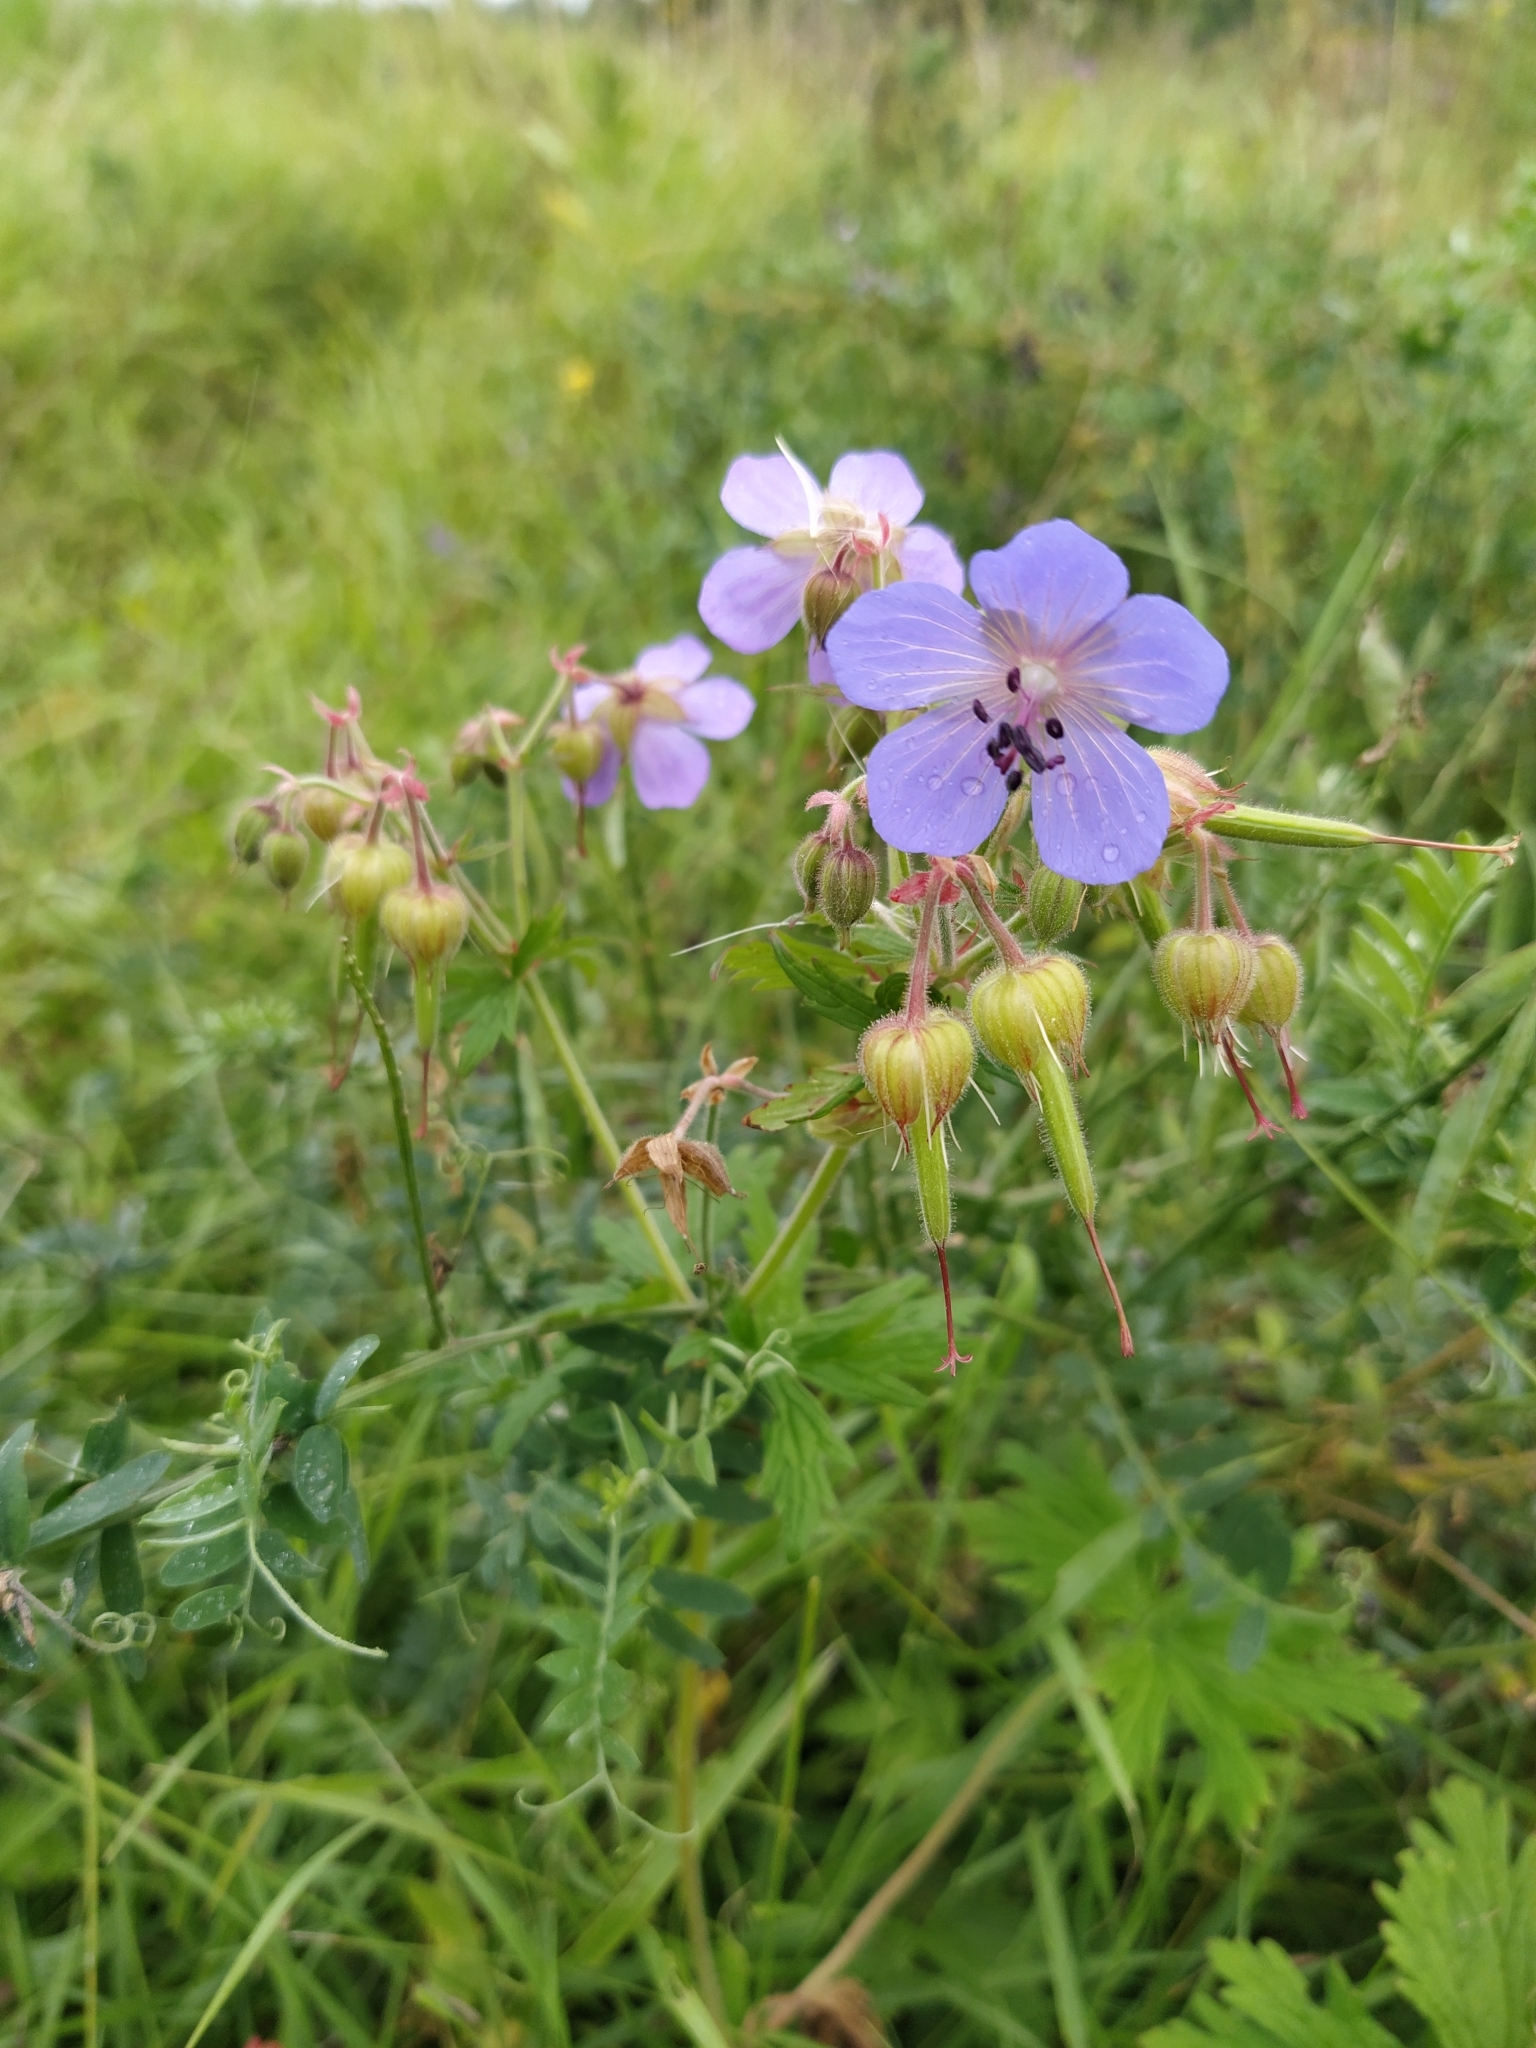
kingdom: Plantae
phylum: Tracheophyta
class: Magnoliopsida
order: Geraniales
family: Geraniaceae
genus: Geranium
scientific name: Geranium pratense
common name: Meadow crane's-bill
